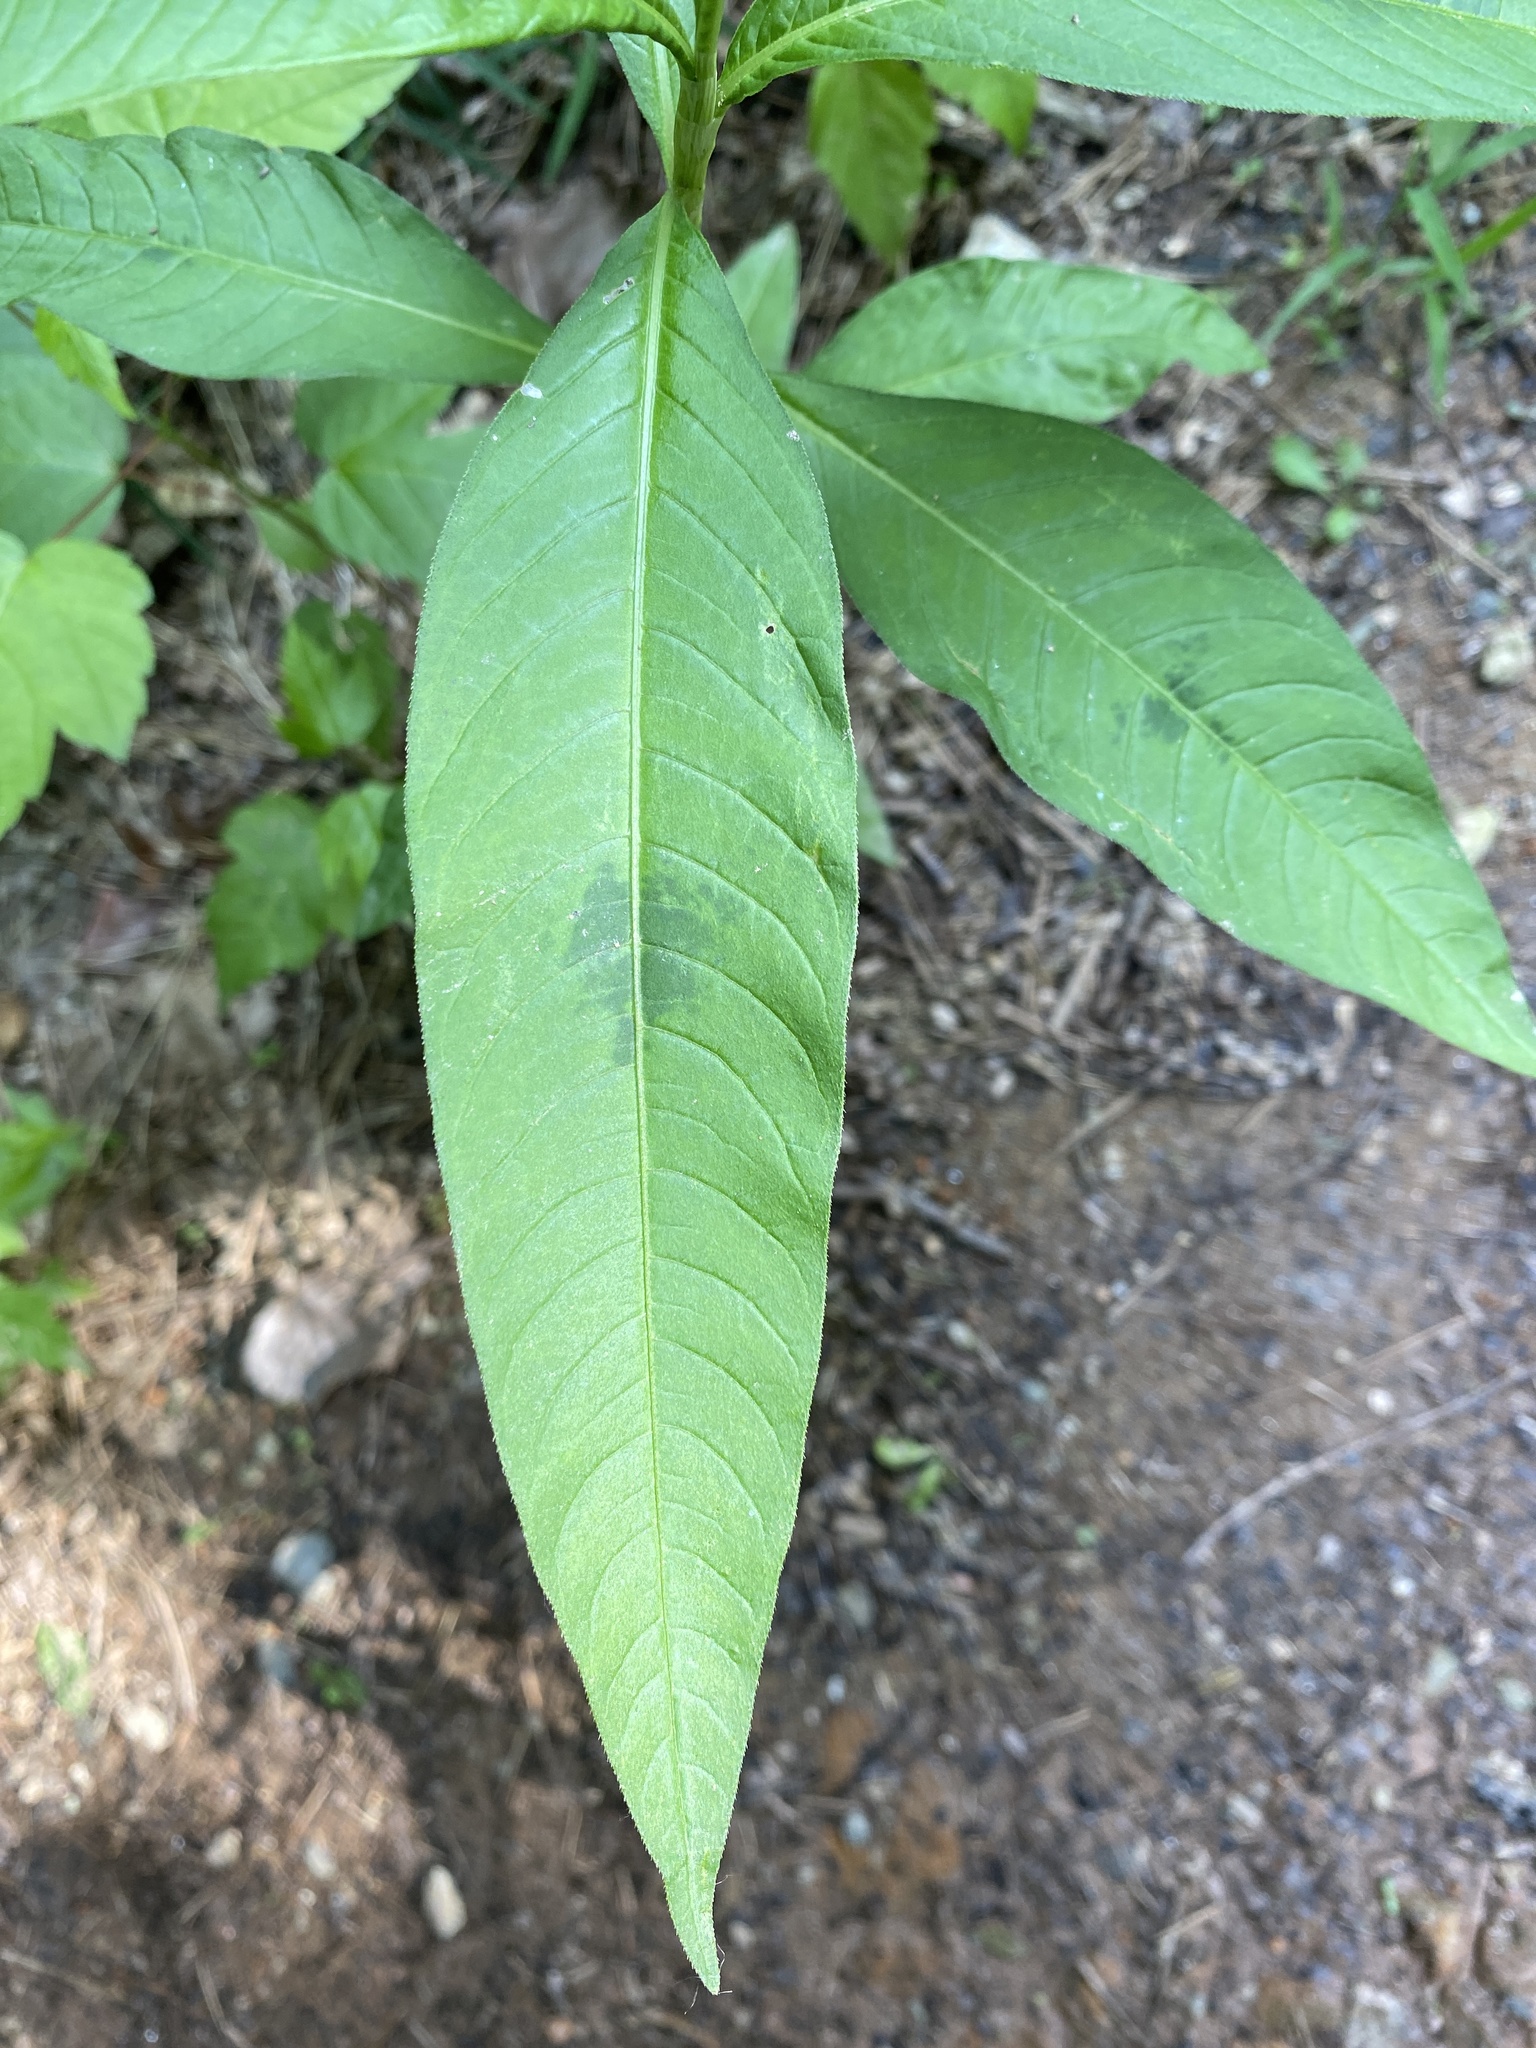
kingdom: Plantae
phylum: Tracheophyta
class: Magnoliopsida
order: Caryophyllales
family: Polygonaceae
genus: Persicaria
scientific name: Persicaria pensylvanica
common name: Pinkweed
